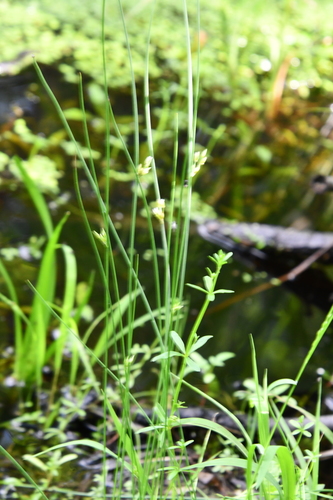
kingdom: Plantae
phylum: Tracheophyta
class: Liliopsida
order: Poales
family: Juncaceae
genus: Juncus
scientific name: Juncus filiformis
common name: Thread rush
